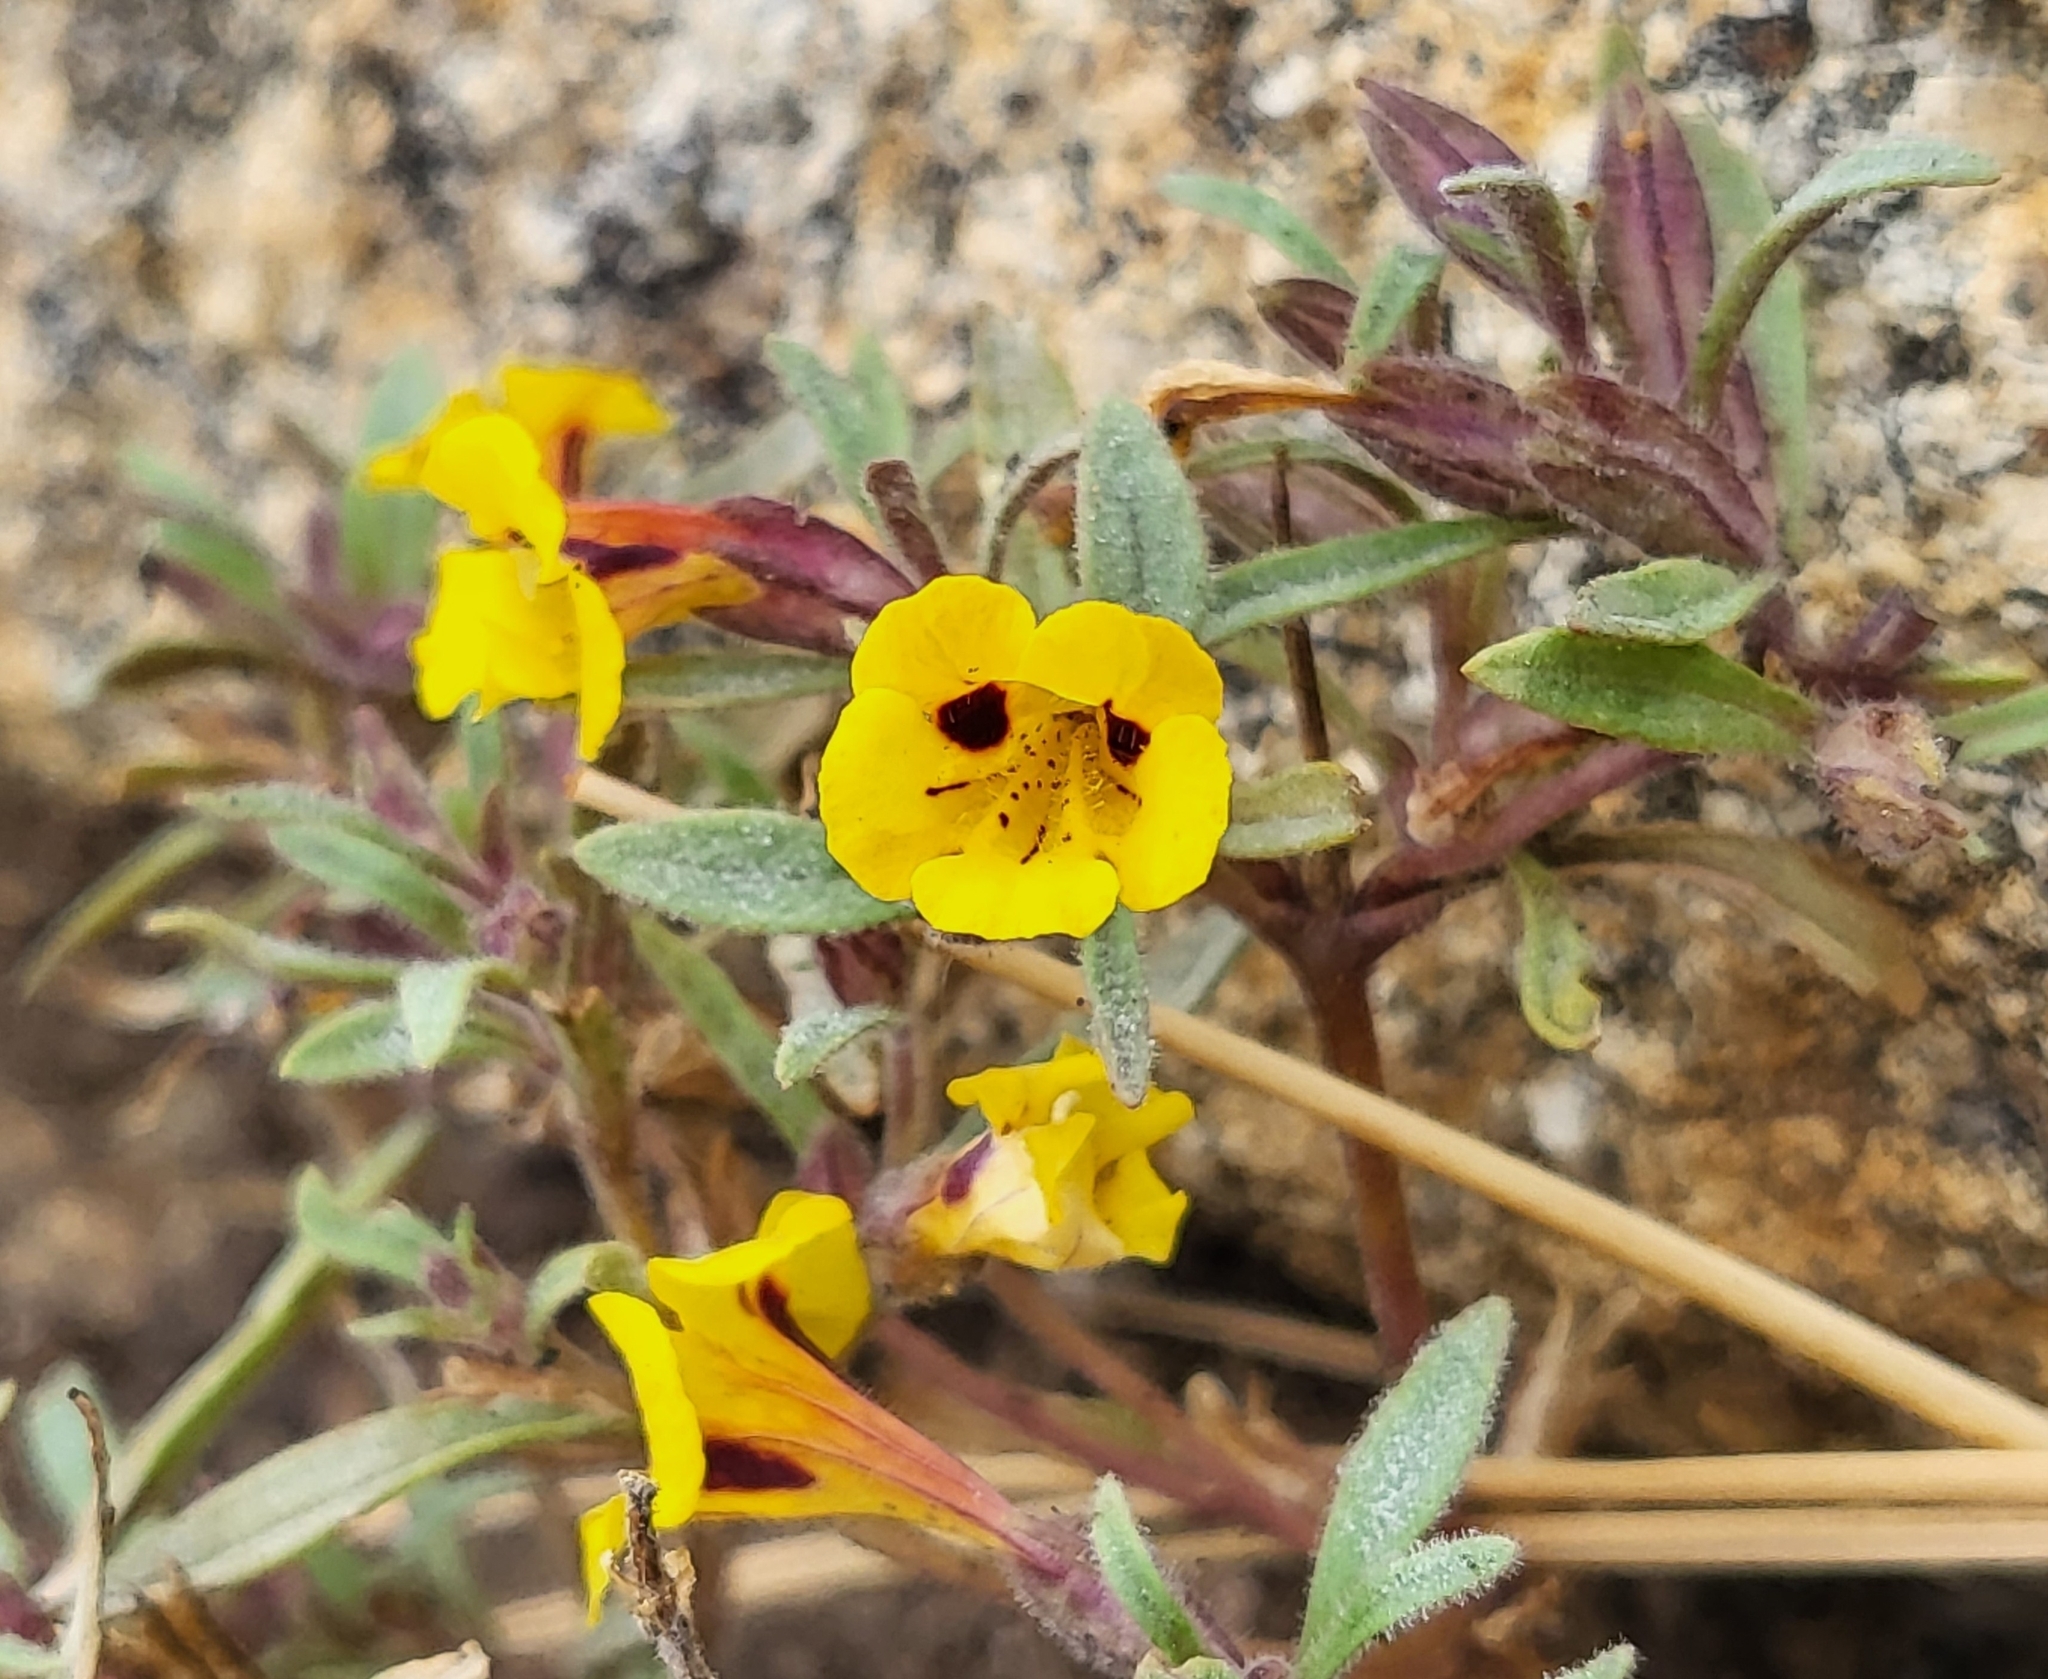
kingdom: Plantae
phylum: Tracheophyta
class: Magnoliopsida
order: Lamiales
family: Phrymaceae
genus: Diplacus
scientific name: Diplacus bicolor
